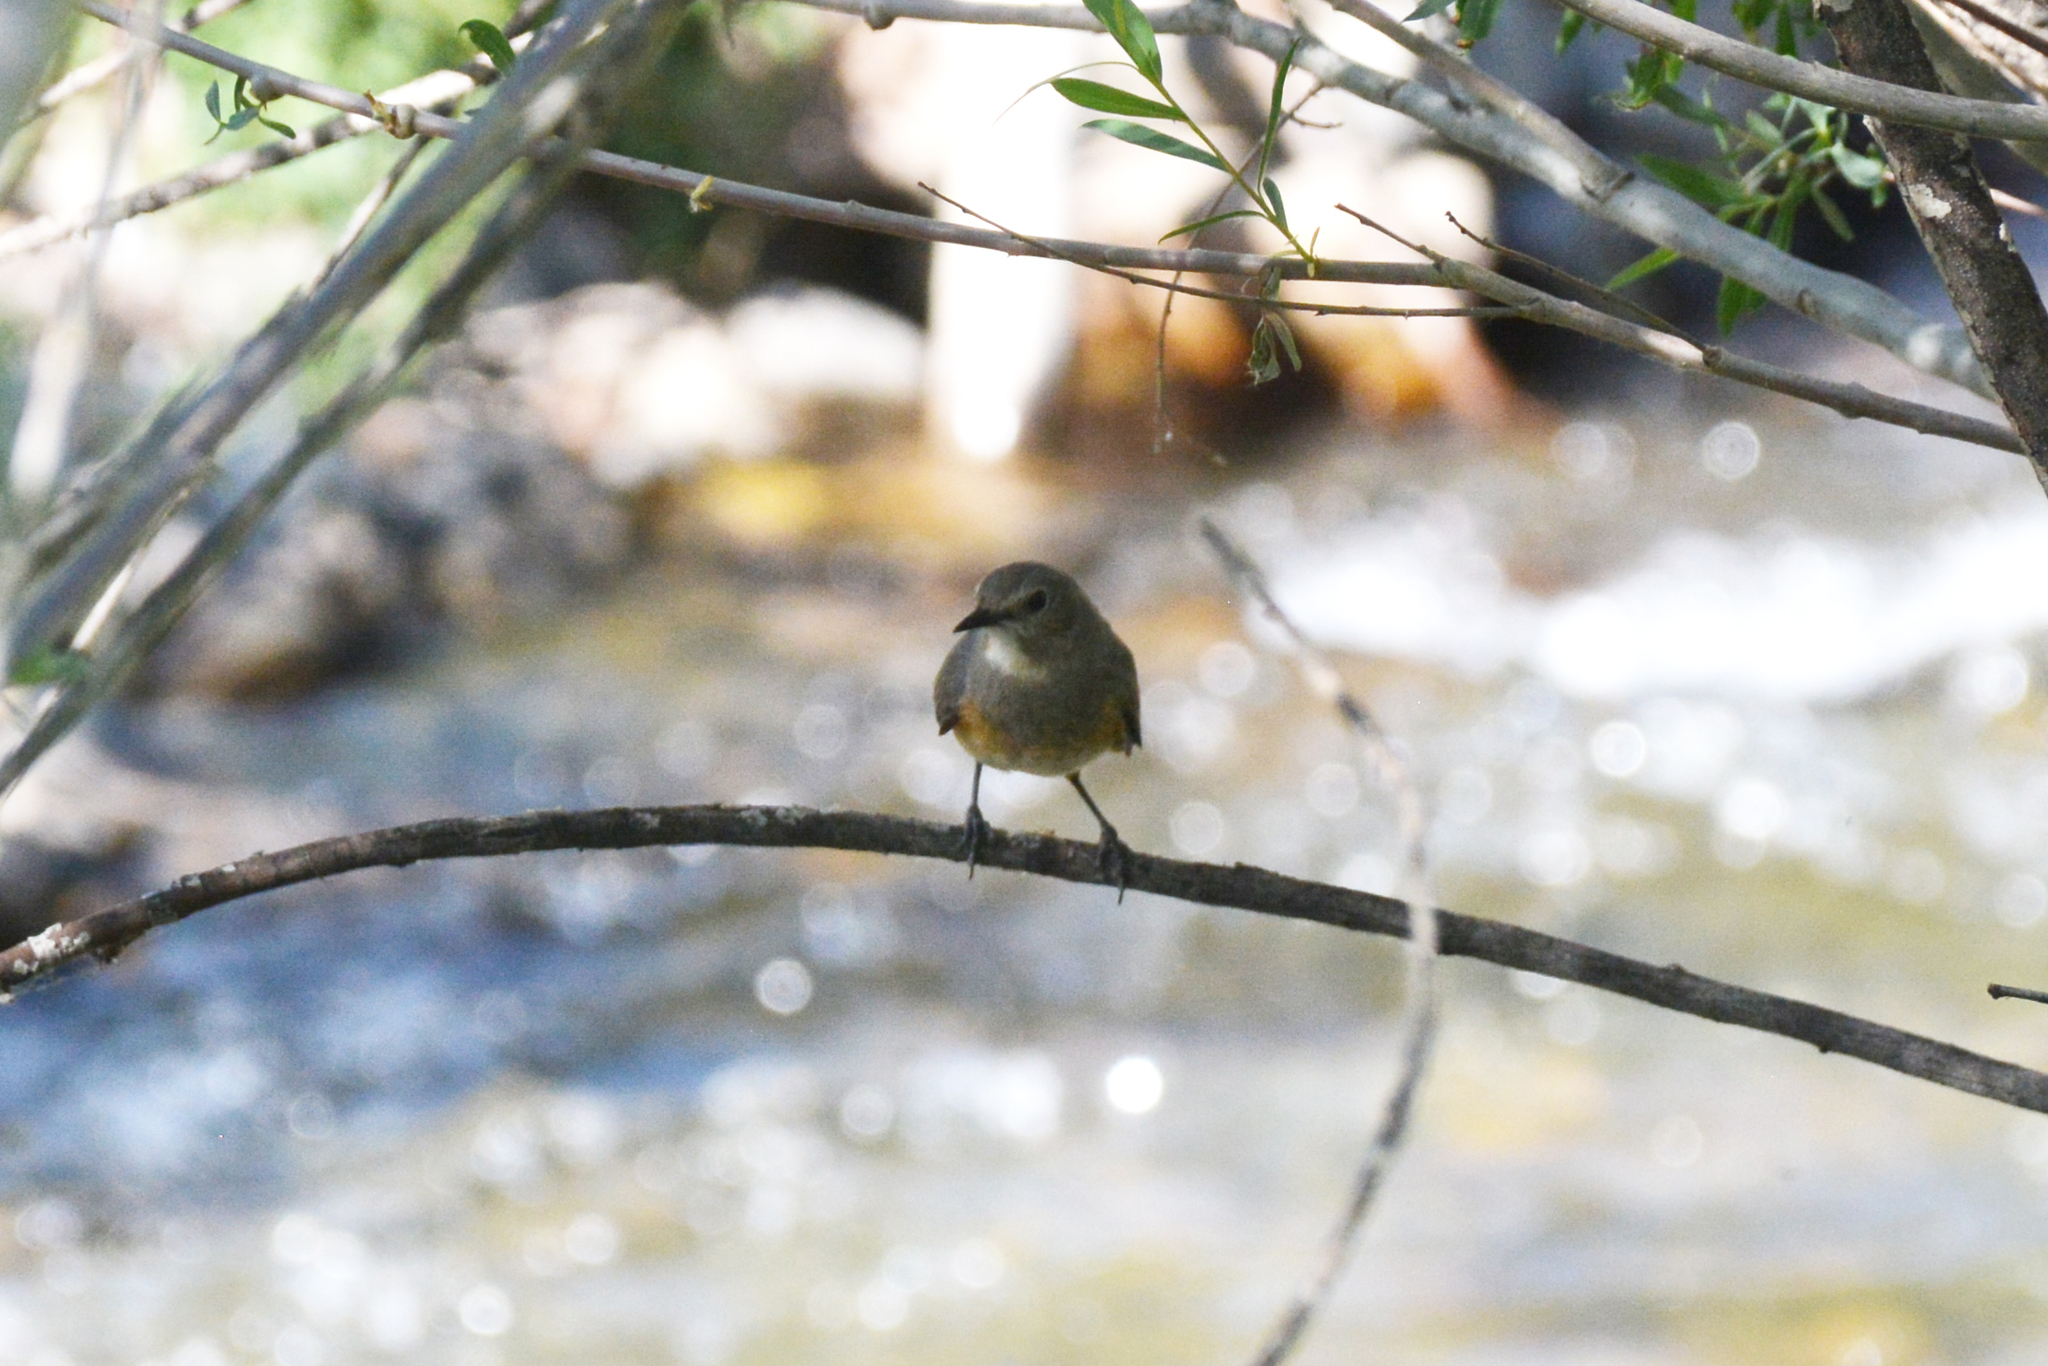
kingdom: Animalia
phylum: Chordata
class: Aves
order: Passeriformes
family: Muscicapidae
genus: Irania
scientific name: Irania gutturalis
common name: White-throated robin
